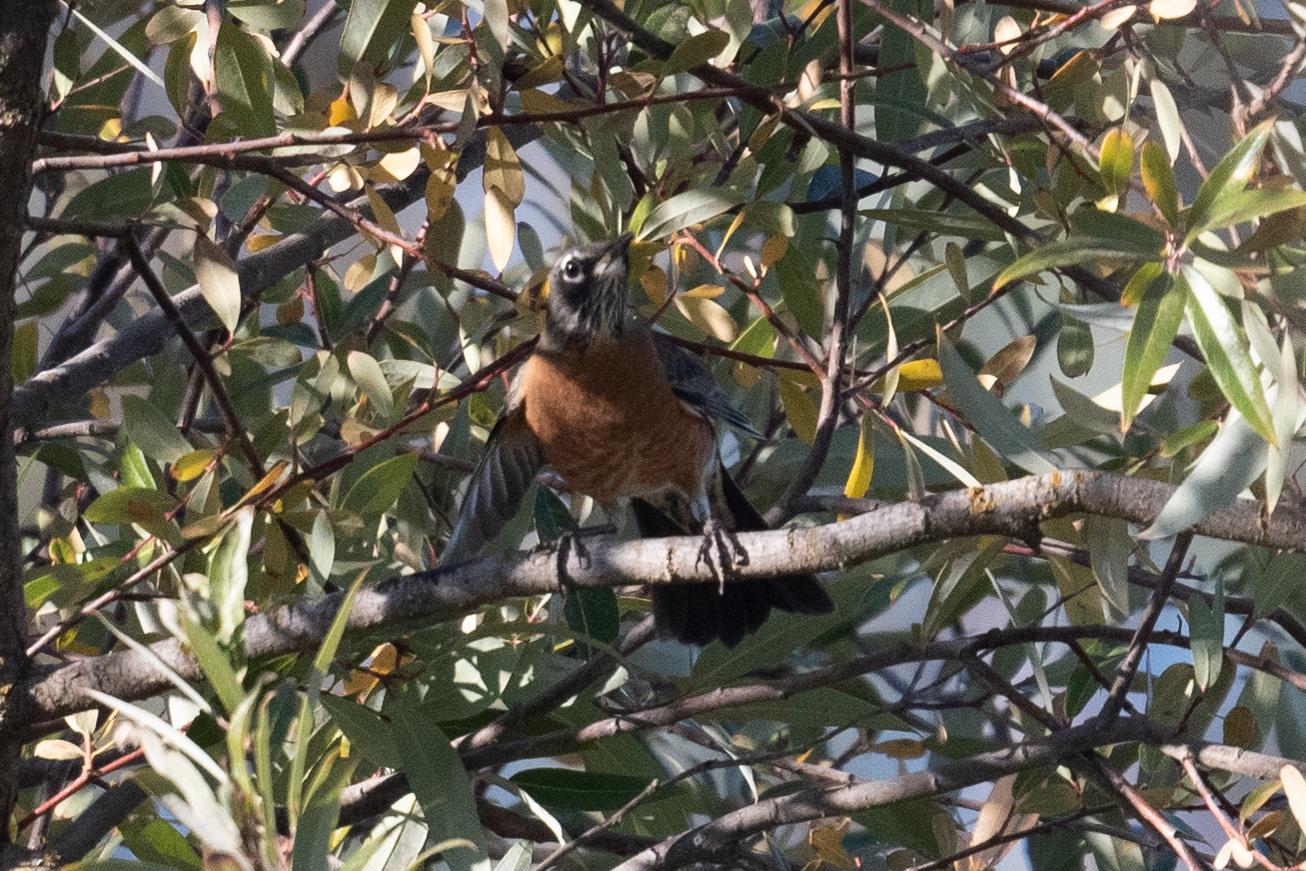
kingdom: Animalia
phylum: Chordata
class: Aves
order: Passeriformes
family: Turdidae
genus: Turdus
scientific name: Turdus migratorius
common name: American robin
